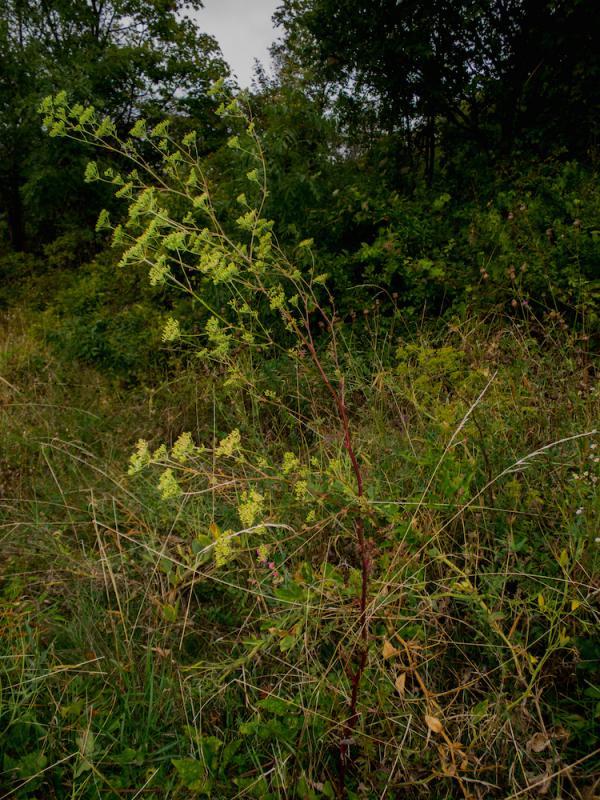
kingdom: Plantae
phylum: Tracheophyta
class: Magnoliopsida
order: Apiales
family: Apiaceae
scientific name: Apiaceae
